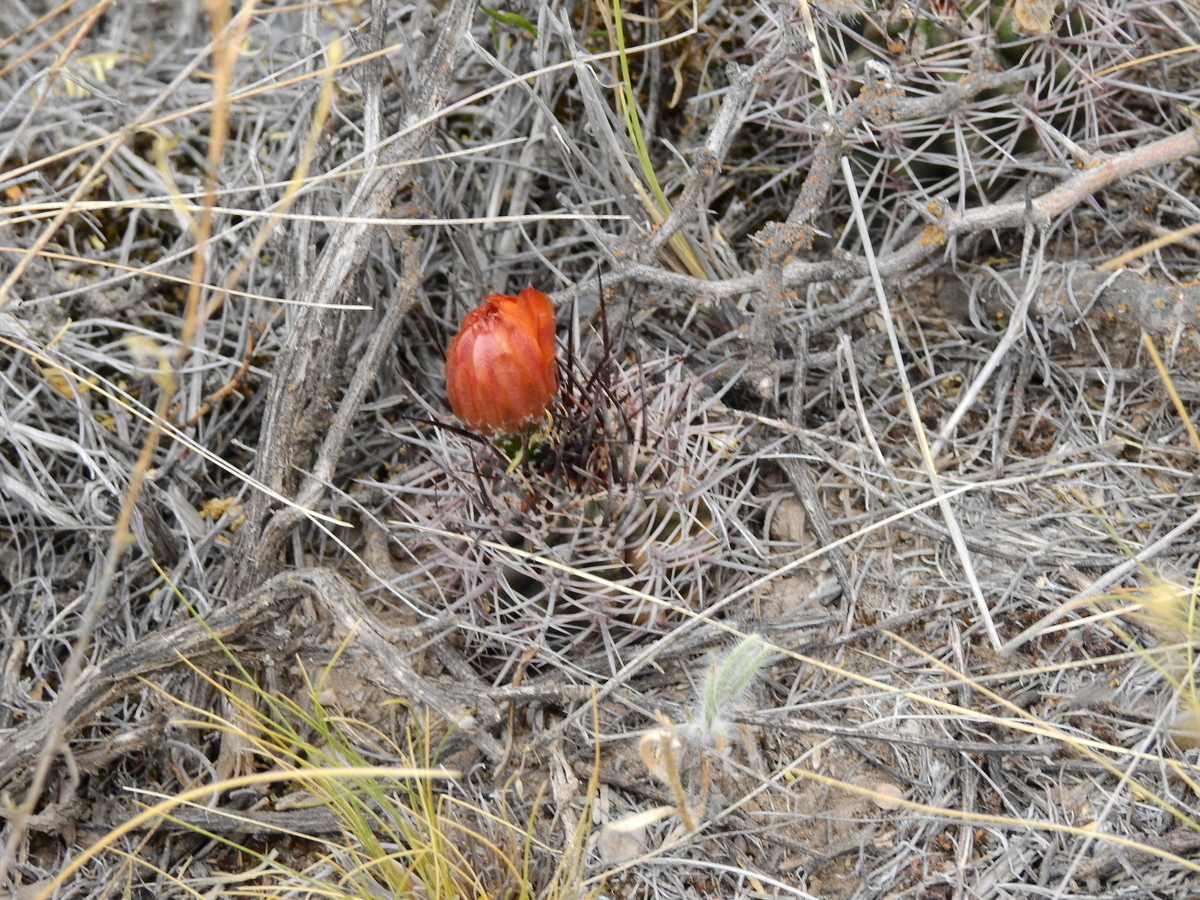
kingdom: Plantae
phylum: Tracheophyta
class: Magnoliopsida
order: Caryophyllales
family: Cactaceae
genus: Eriosyce
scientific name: Eriosyce strausiana
